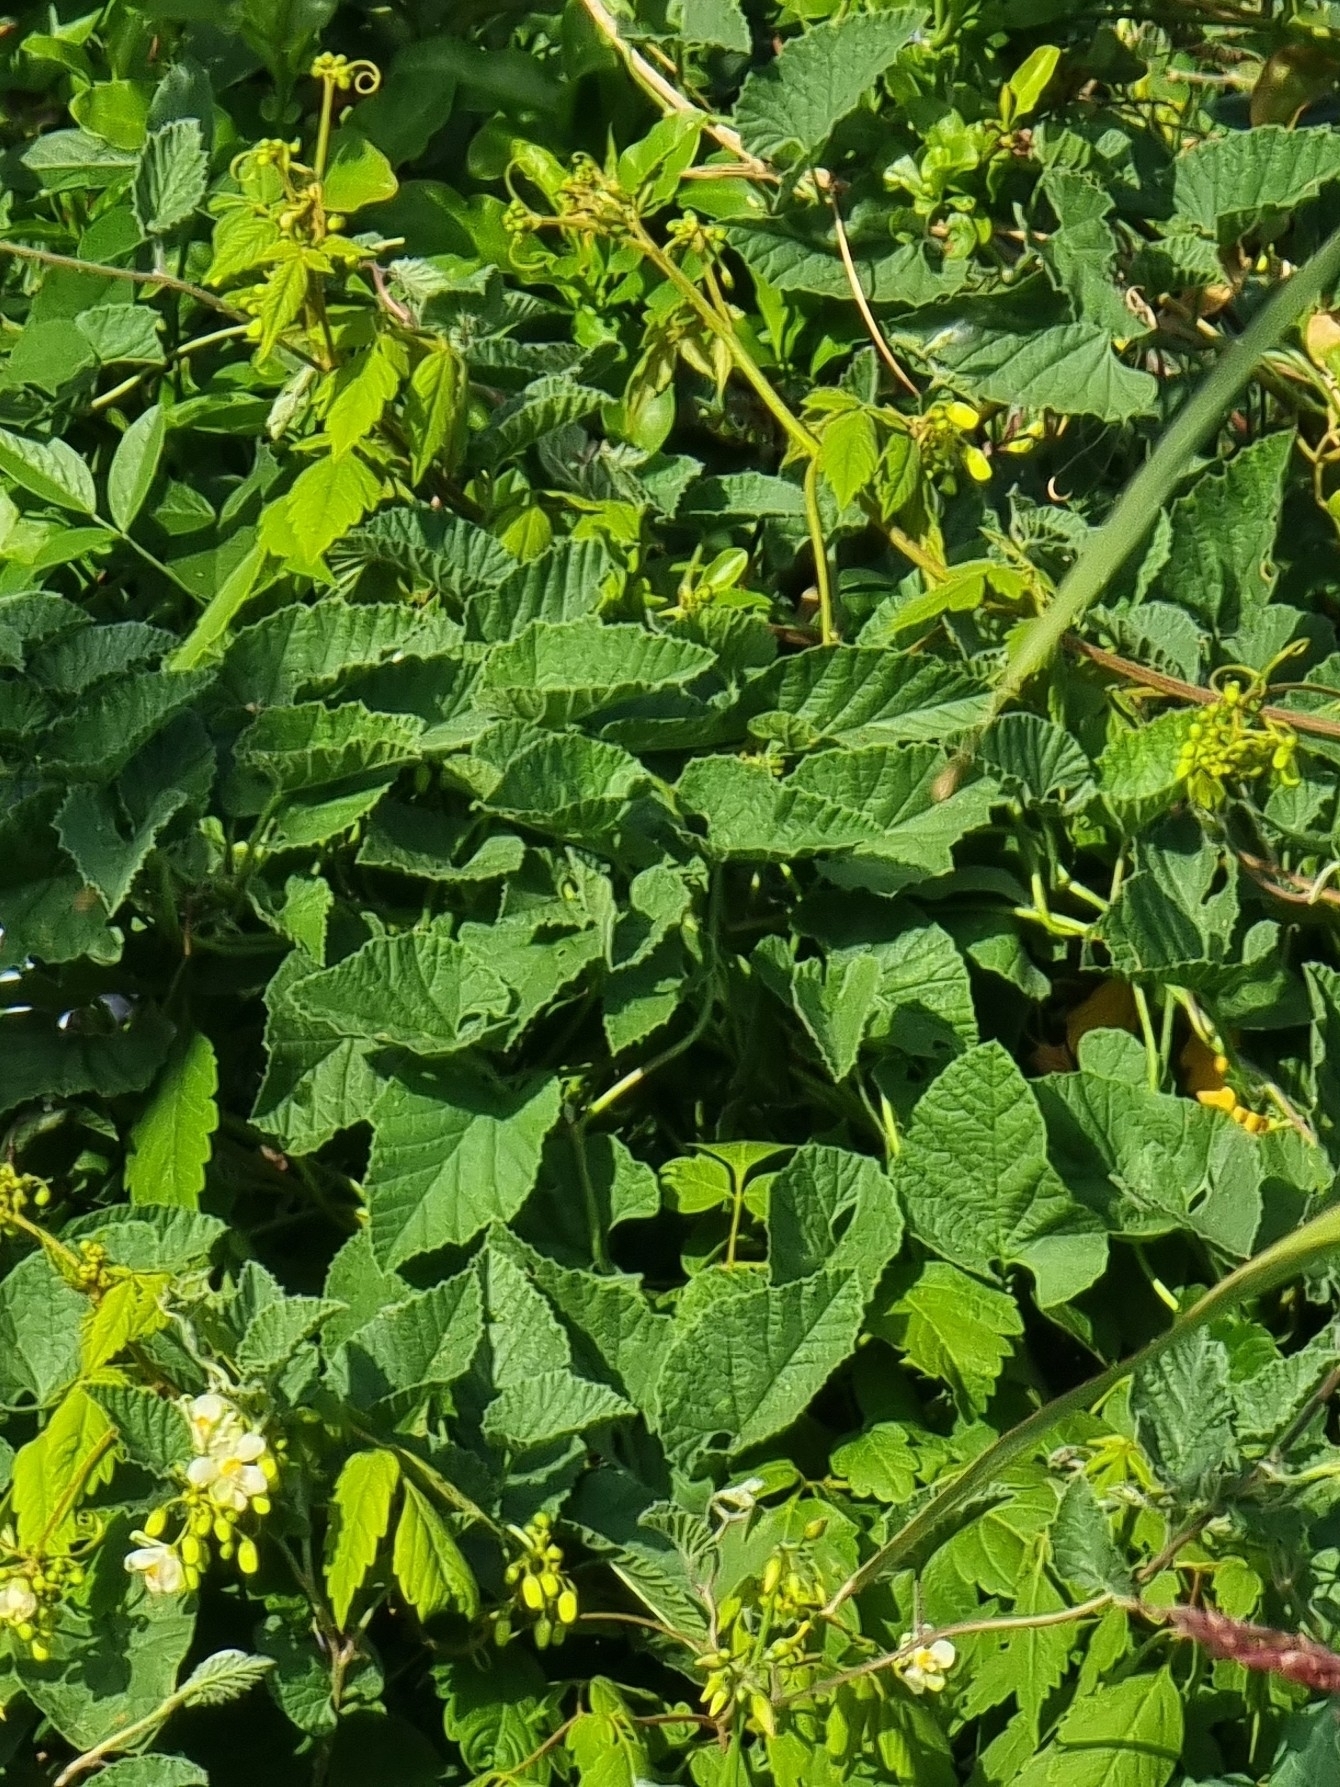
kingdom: Plantae
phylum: Tracheophyta
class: Magnoliopsida
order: Solanales
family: Convolvulaceae
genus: Convolvulus
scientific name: Convolvulus althaeoides
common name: Mallow bindweed
